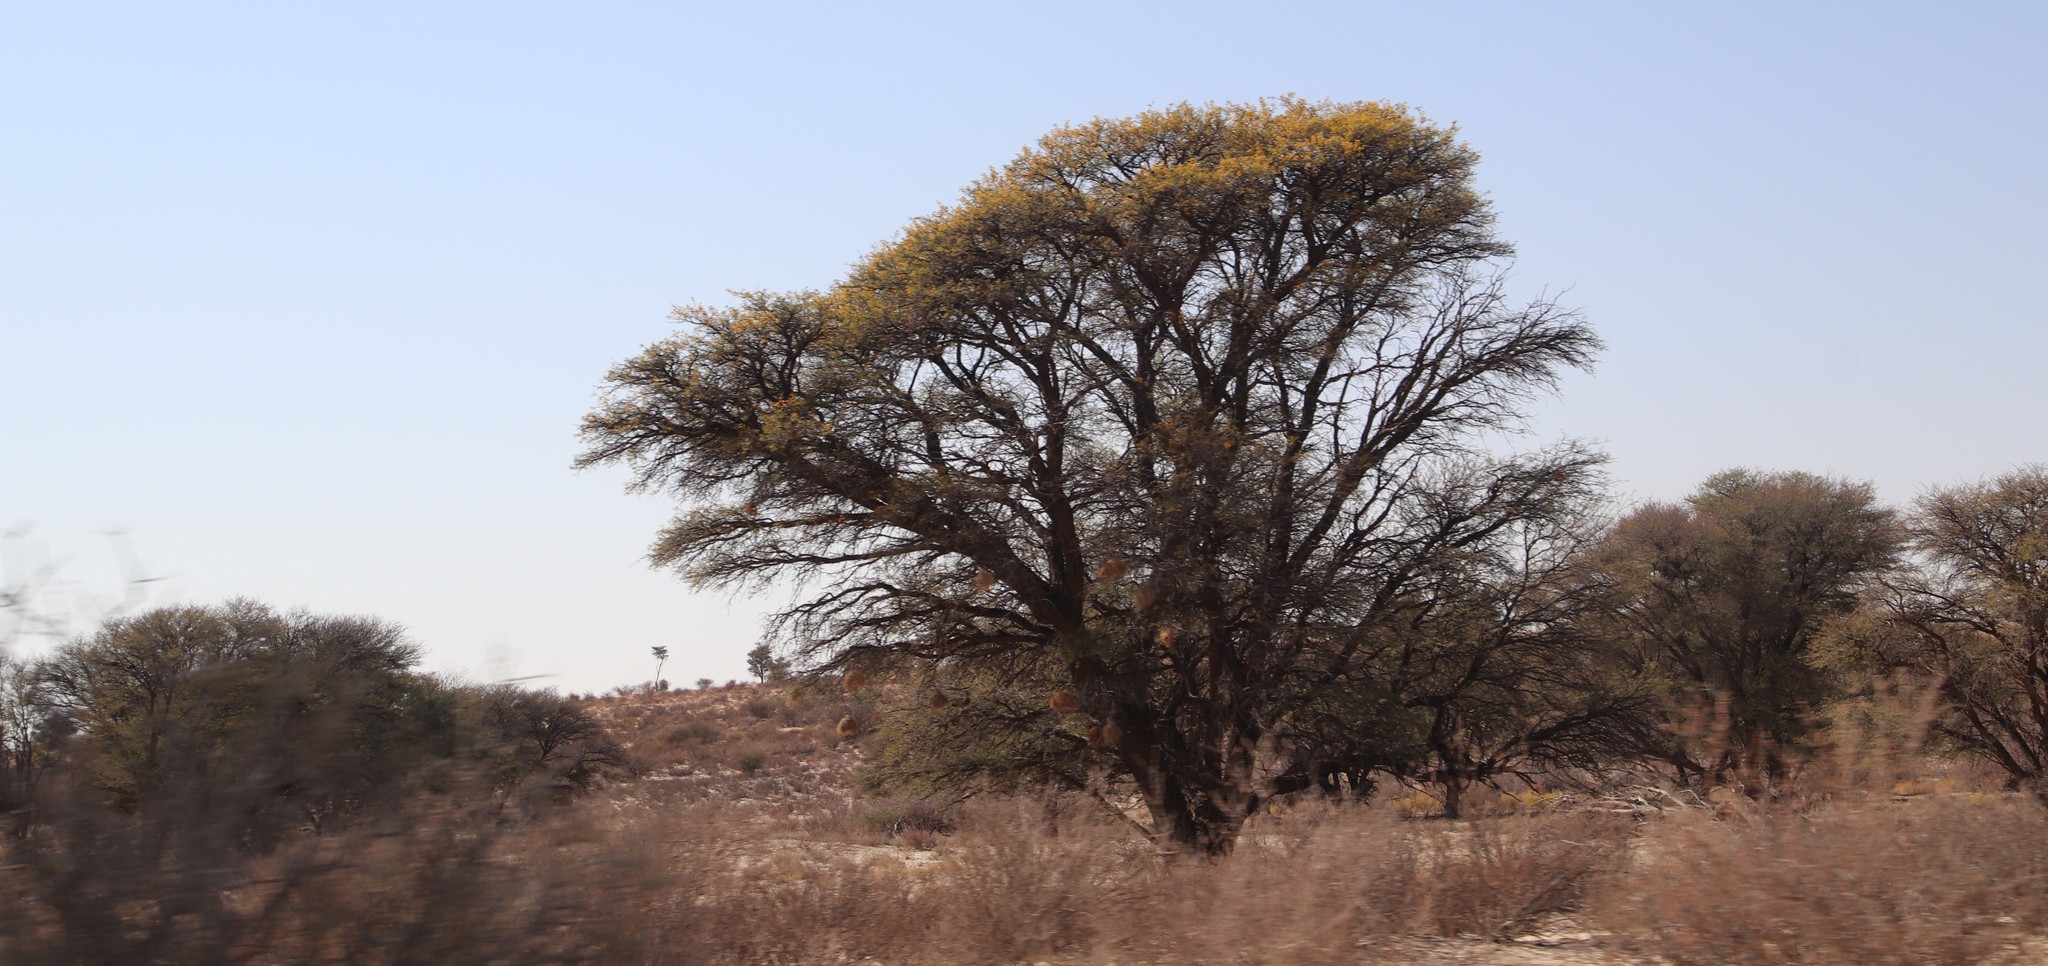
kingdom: Plantae
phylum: Tracheophyta
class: Magnoliopsida
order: Fabales
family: Fabaceae
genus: Vachellia
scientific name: Vachellia erioloba
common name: Camel thorn
